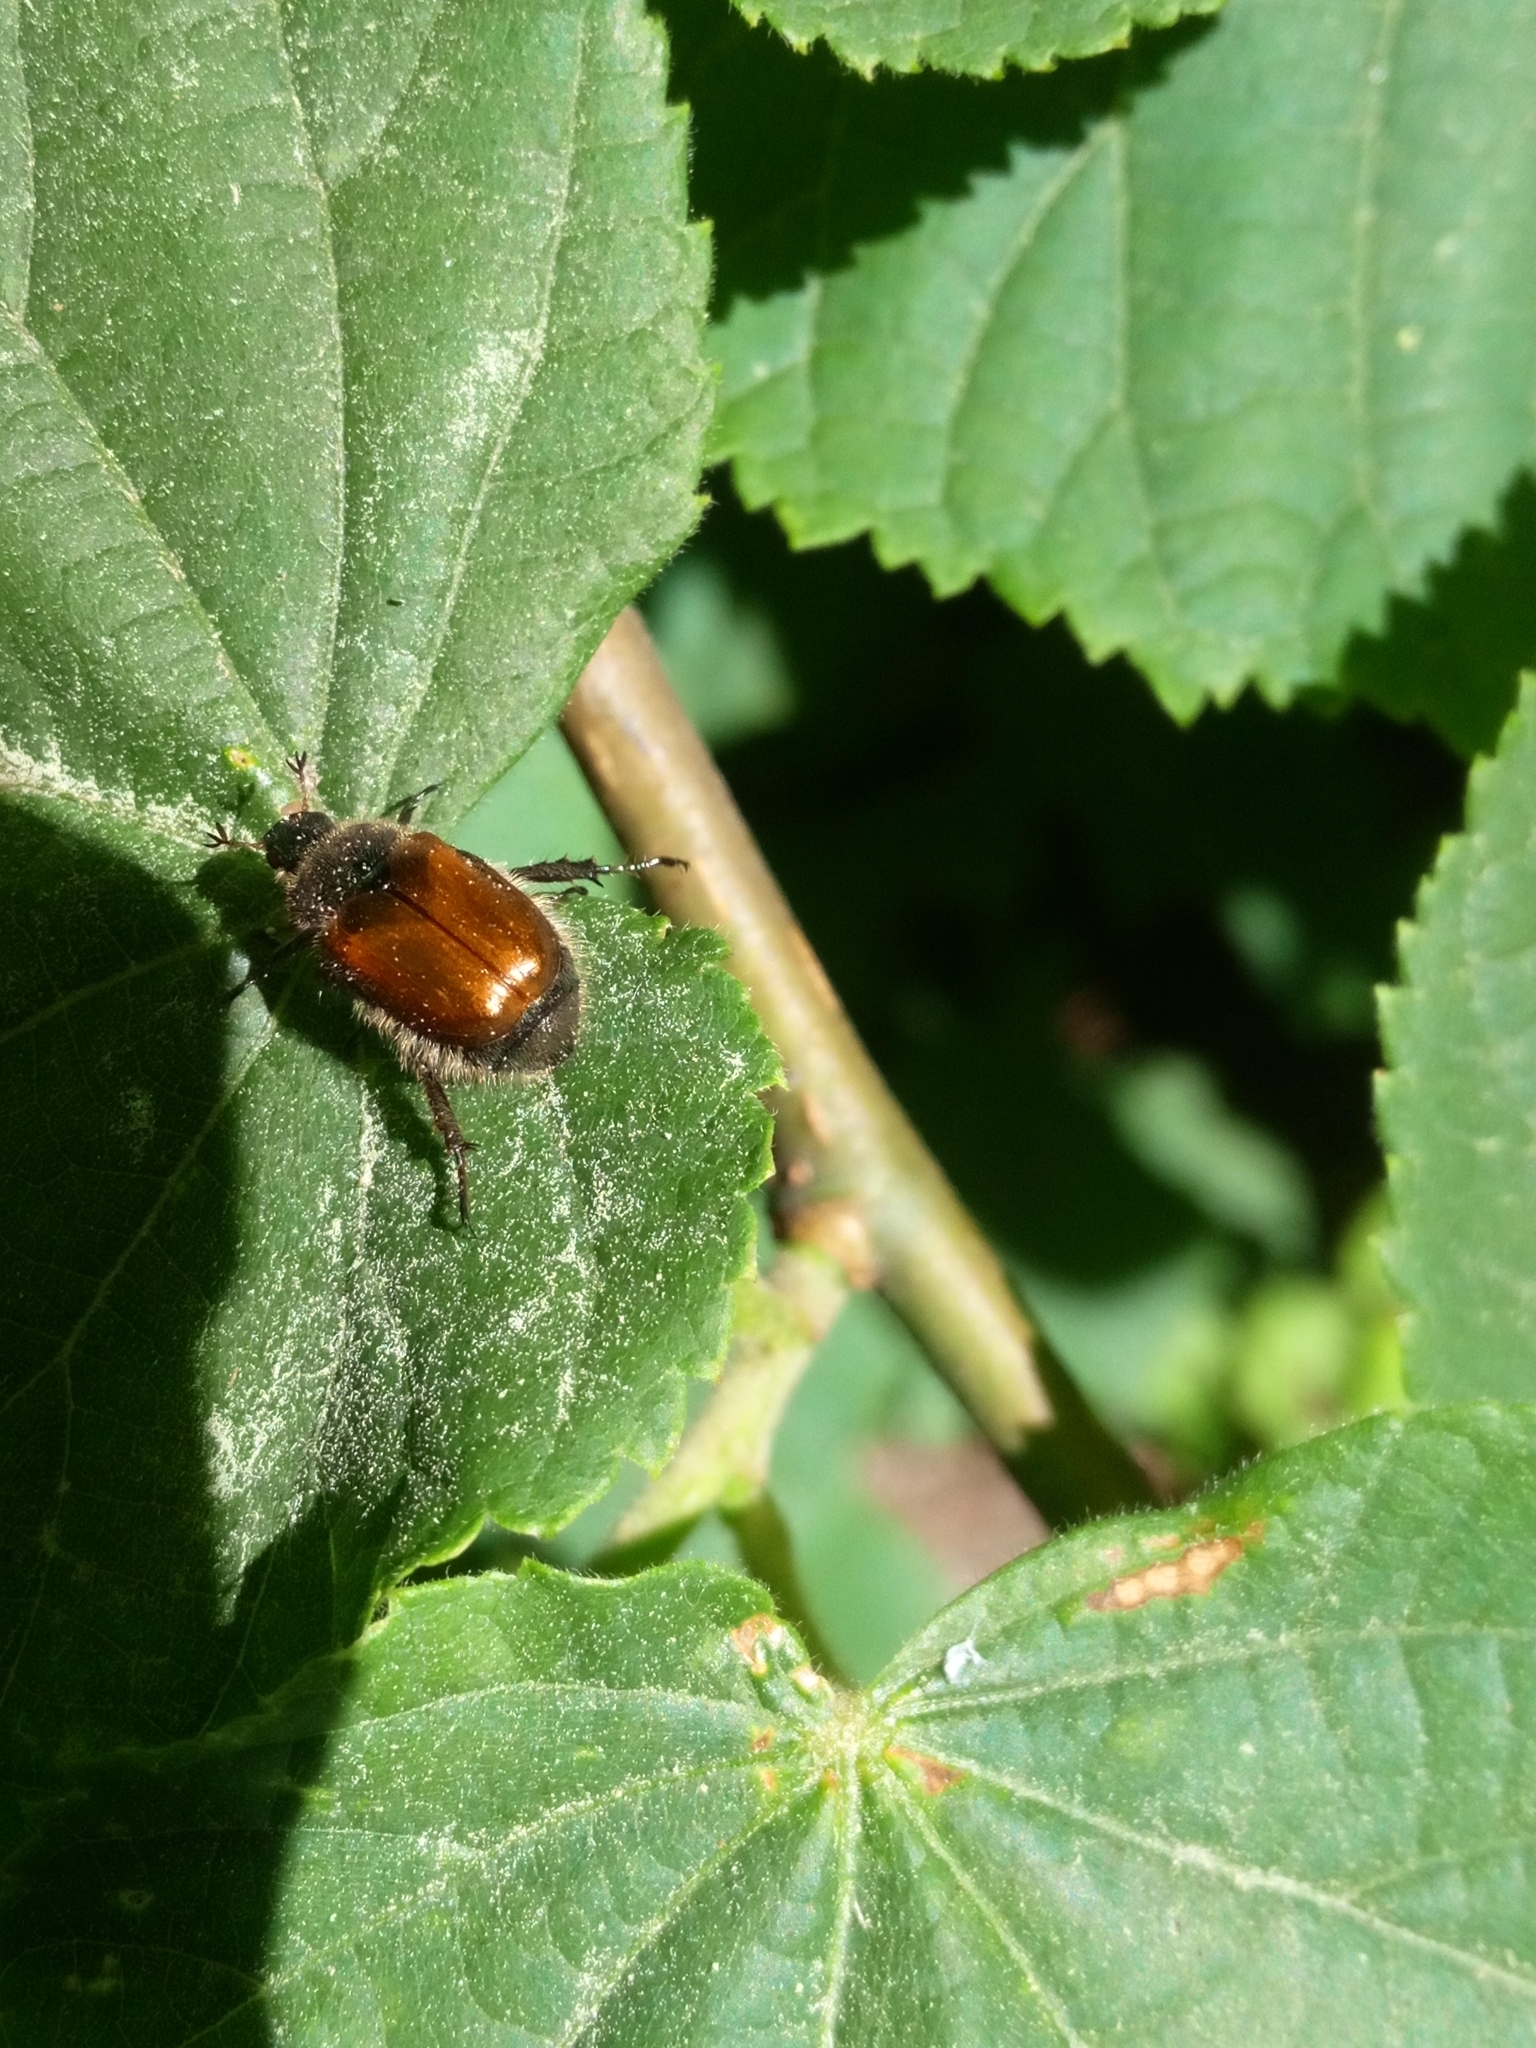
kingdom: Animalia
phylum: Arthropoda
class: Insecta
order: Coleoptera
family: Scarabaeidae
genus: Phyllopertha
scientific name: Phyllopertha horticola
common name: Garden chafer
